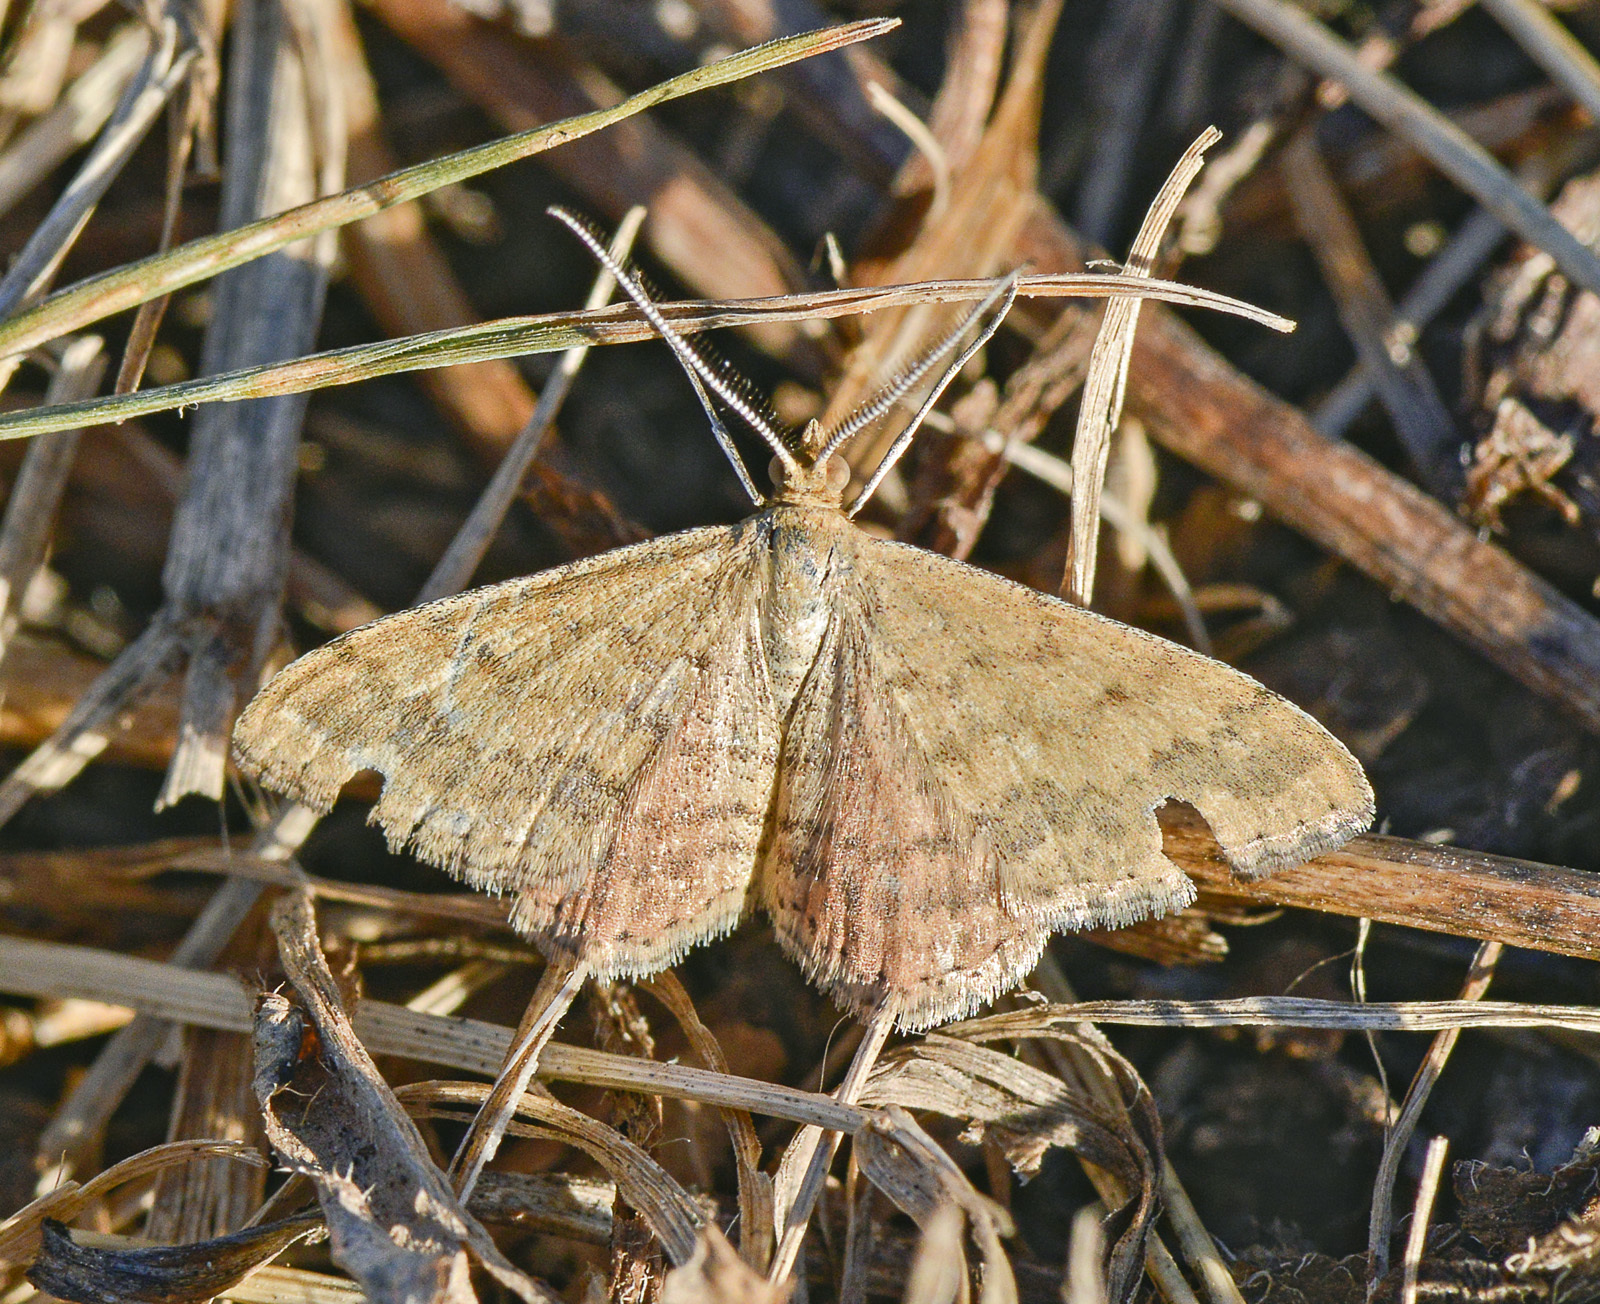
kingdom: Animalia
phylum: Arthropoda
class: Insecta
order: Lepidoptera
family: Geometridae
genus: Scopula
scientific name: Scopula rubraria
